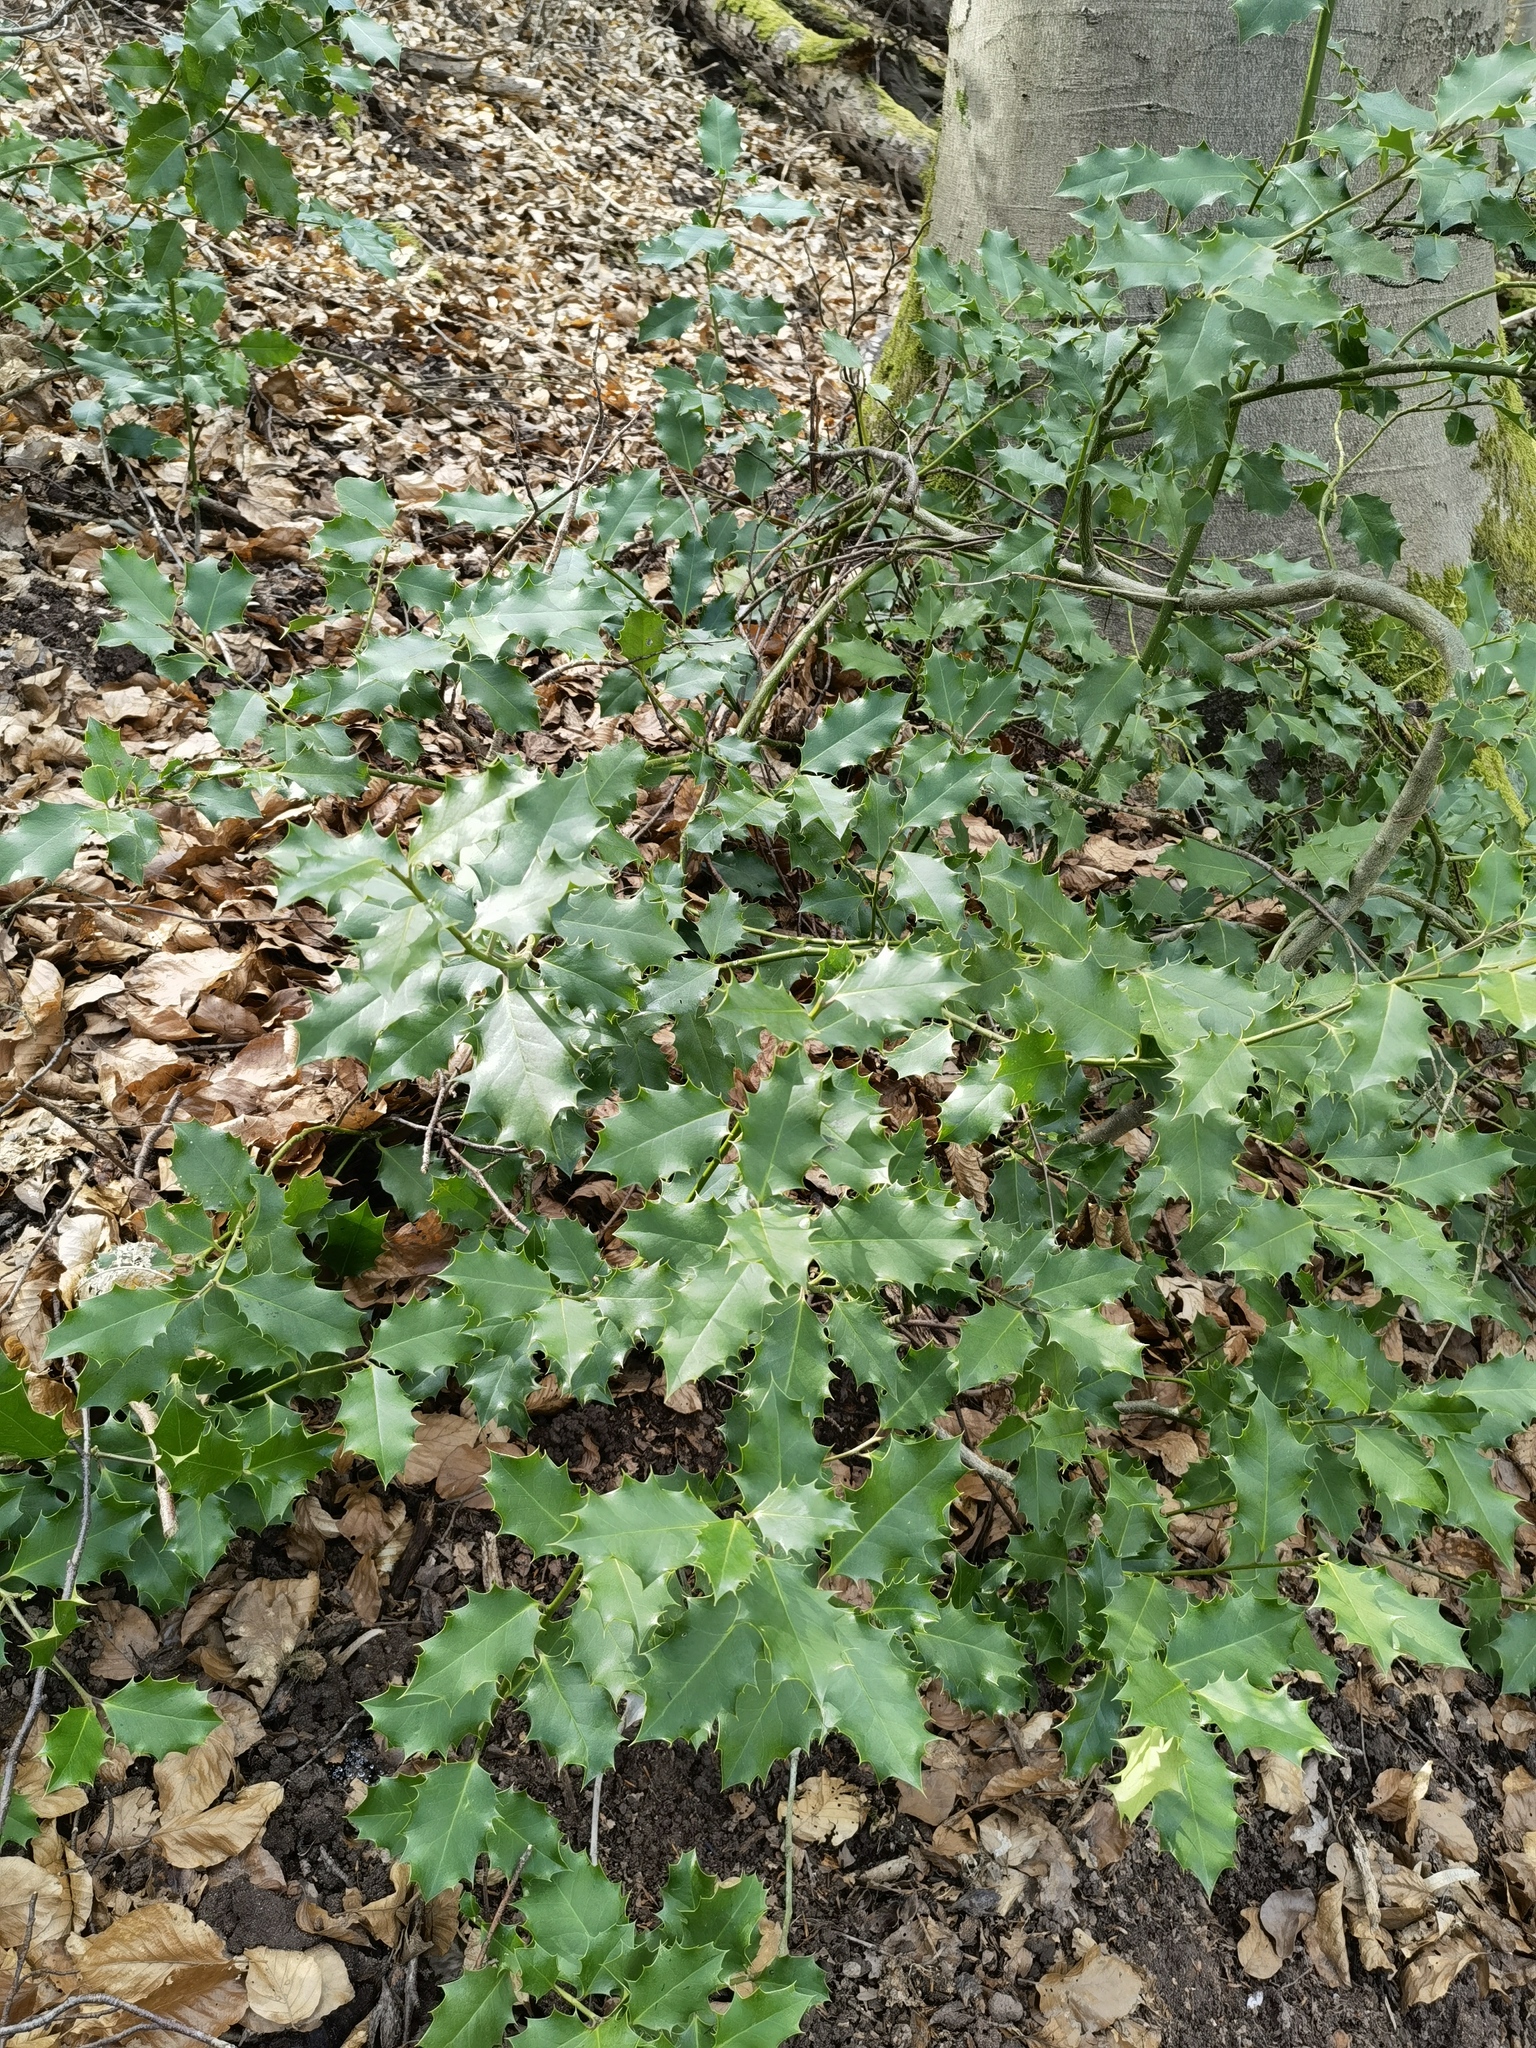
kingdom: Plantae
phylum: Tracheophyta
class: Magnoliopsida
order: Aquifoliales
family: Aquifoliaceae
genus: Ilex
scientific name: Ilex aquifolium
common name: English holly
